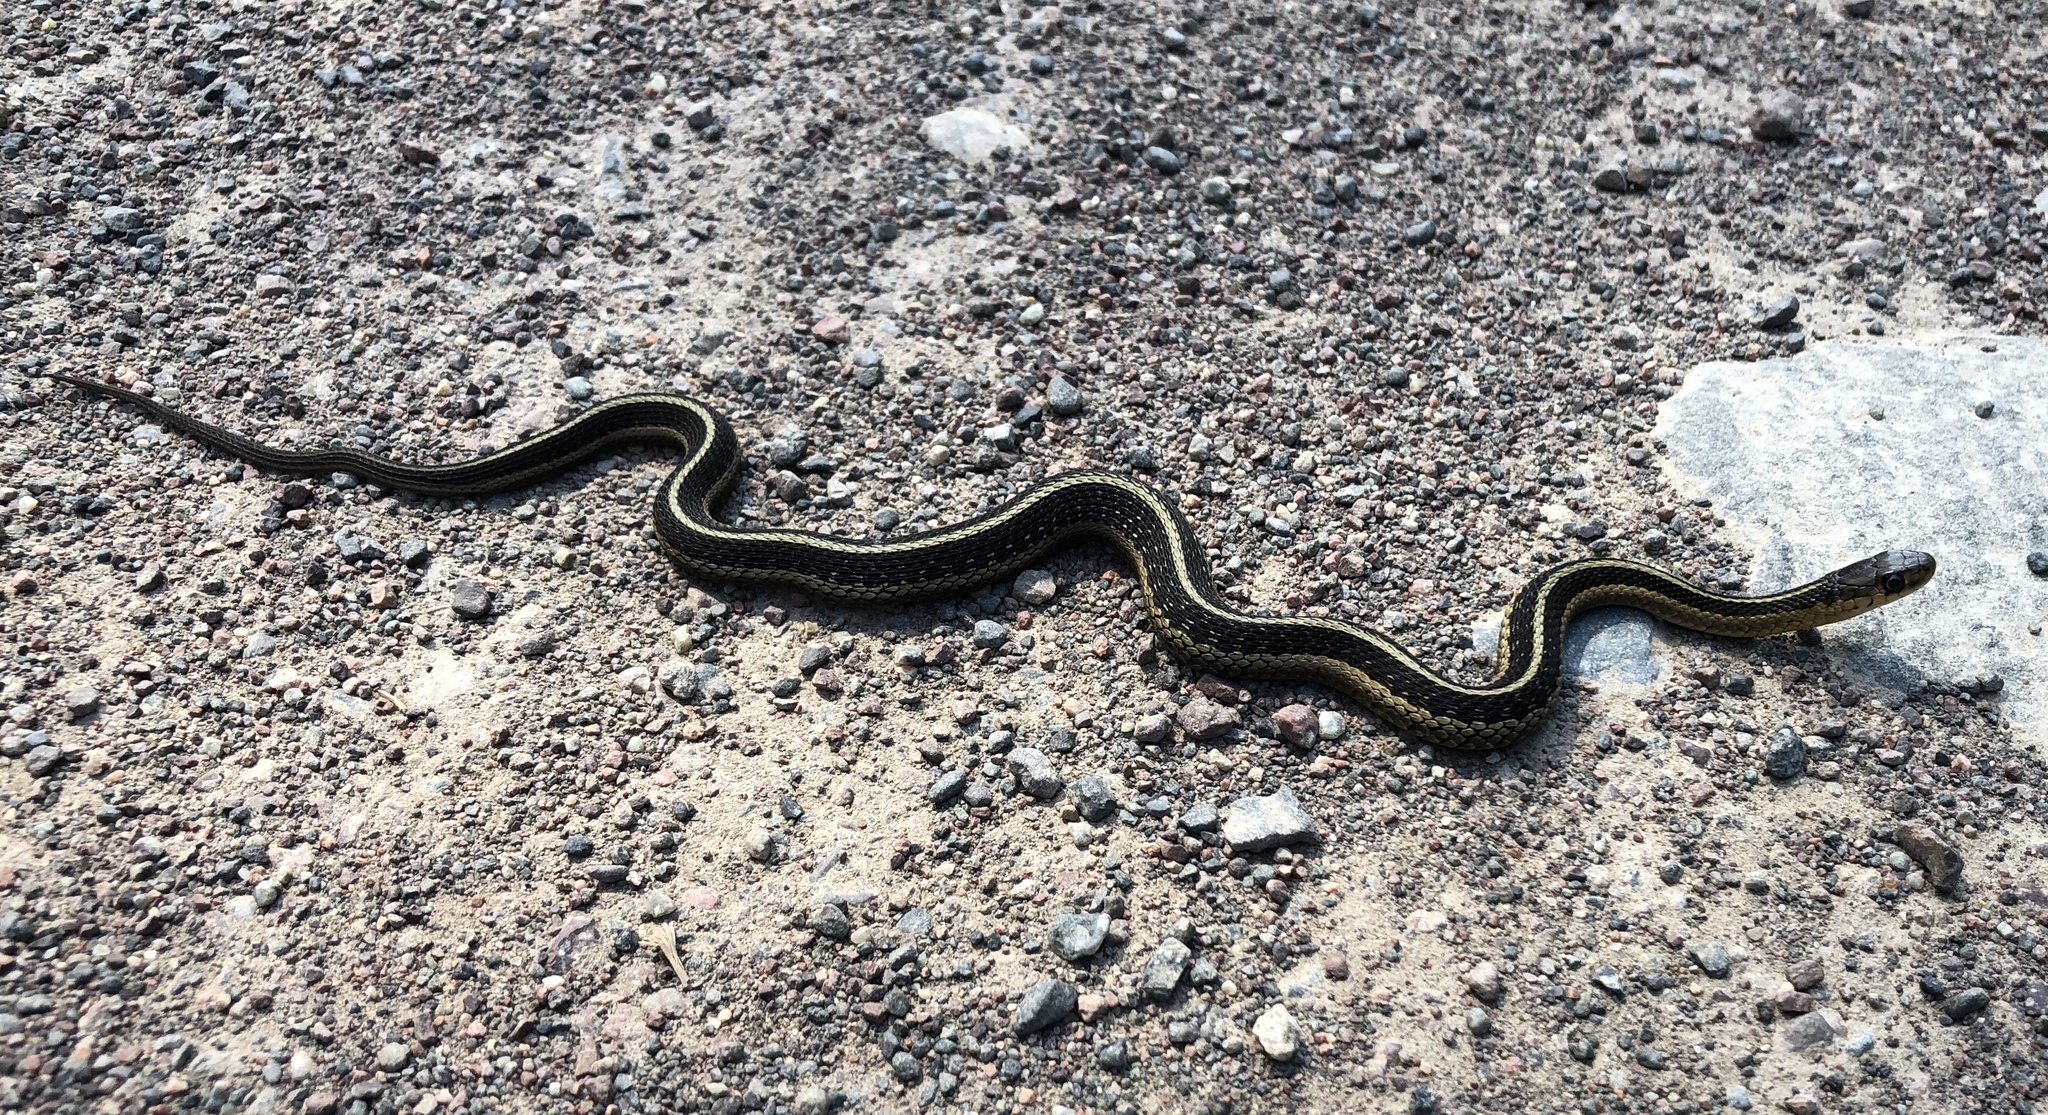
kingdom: Animalia
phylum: Chordata
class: Squamata
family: Colubridae
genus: Thamnophis
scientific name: Thamnophis sirtalis
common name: Common garter snake
